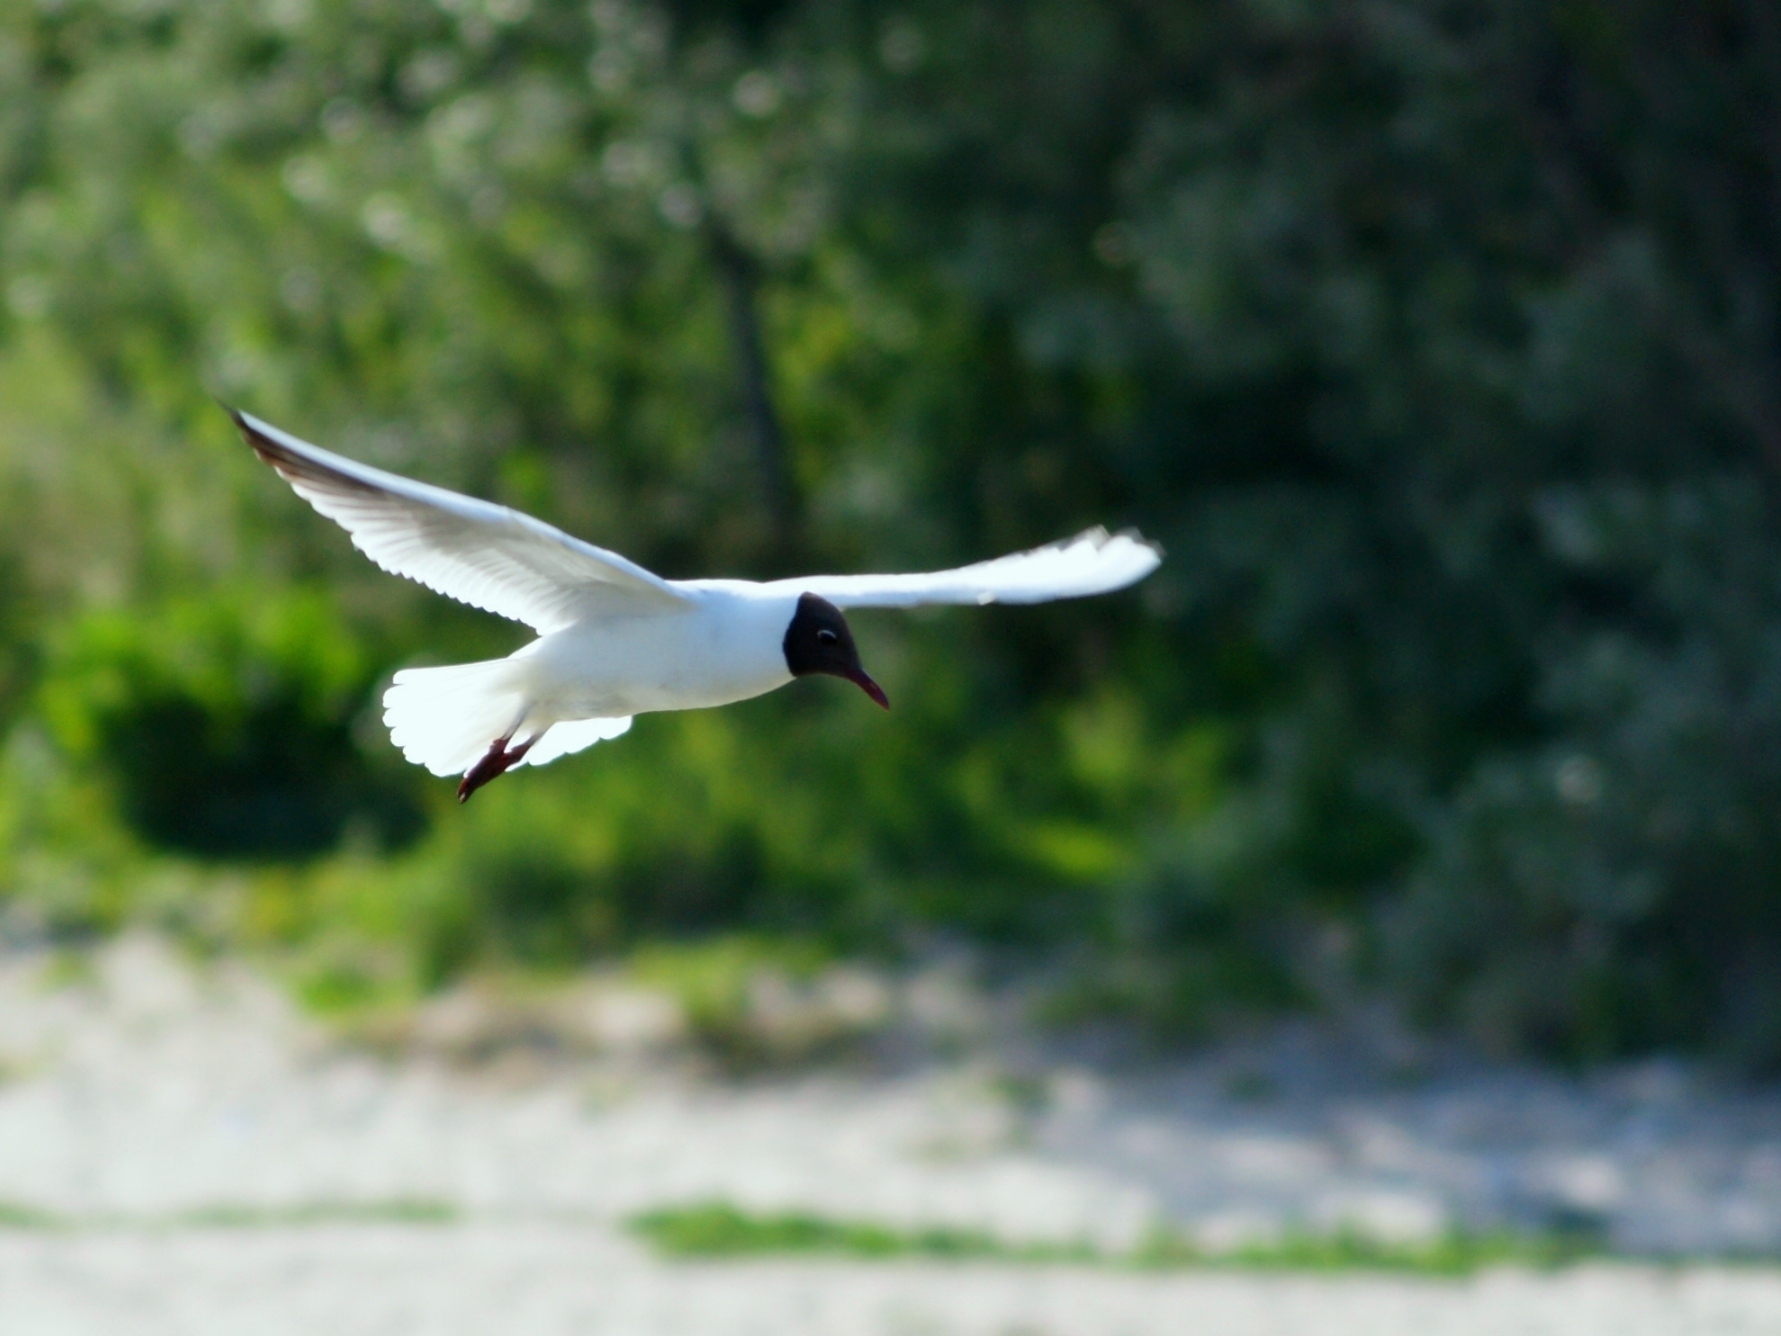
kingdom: Animalia
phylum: Chordata
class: Aves
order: Charadriiformes
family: Laridae
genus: Chroicocephalus
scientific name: Chroicocephalus ridibundus
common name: Black-headed gull
